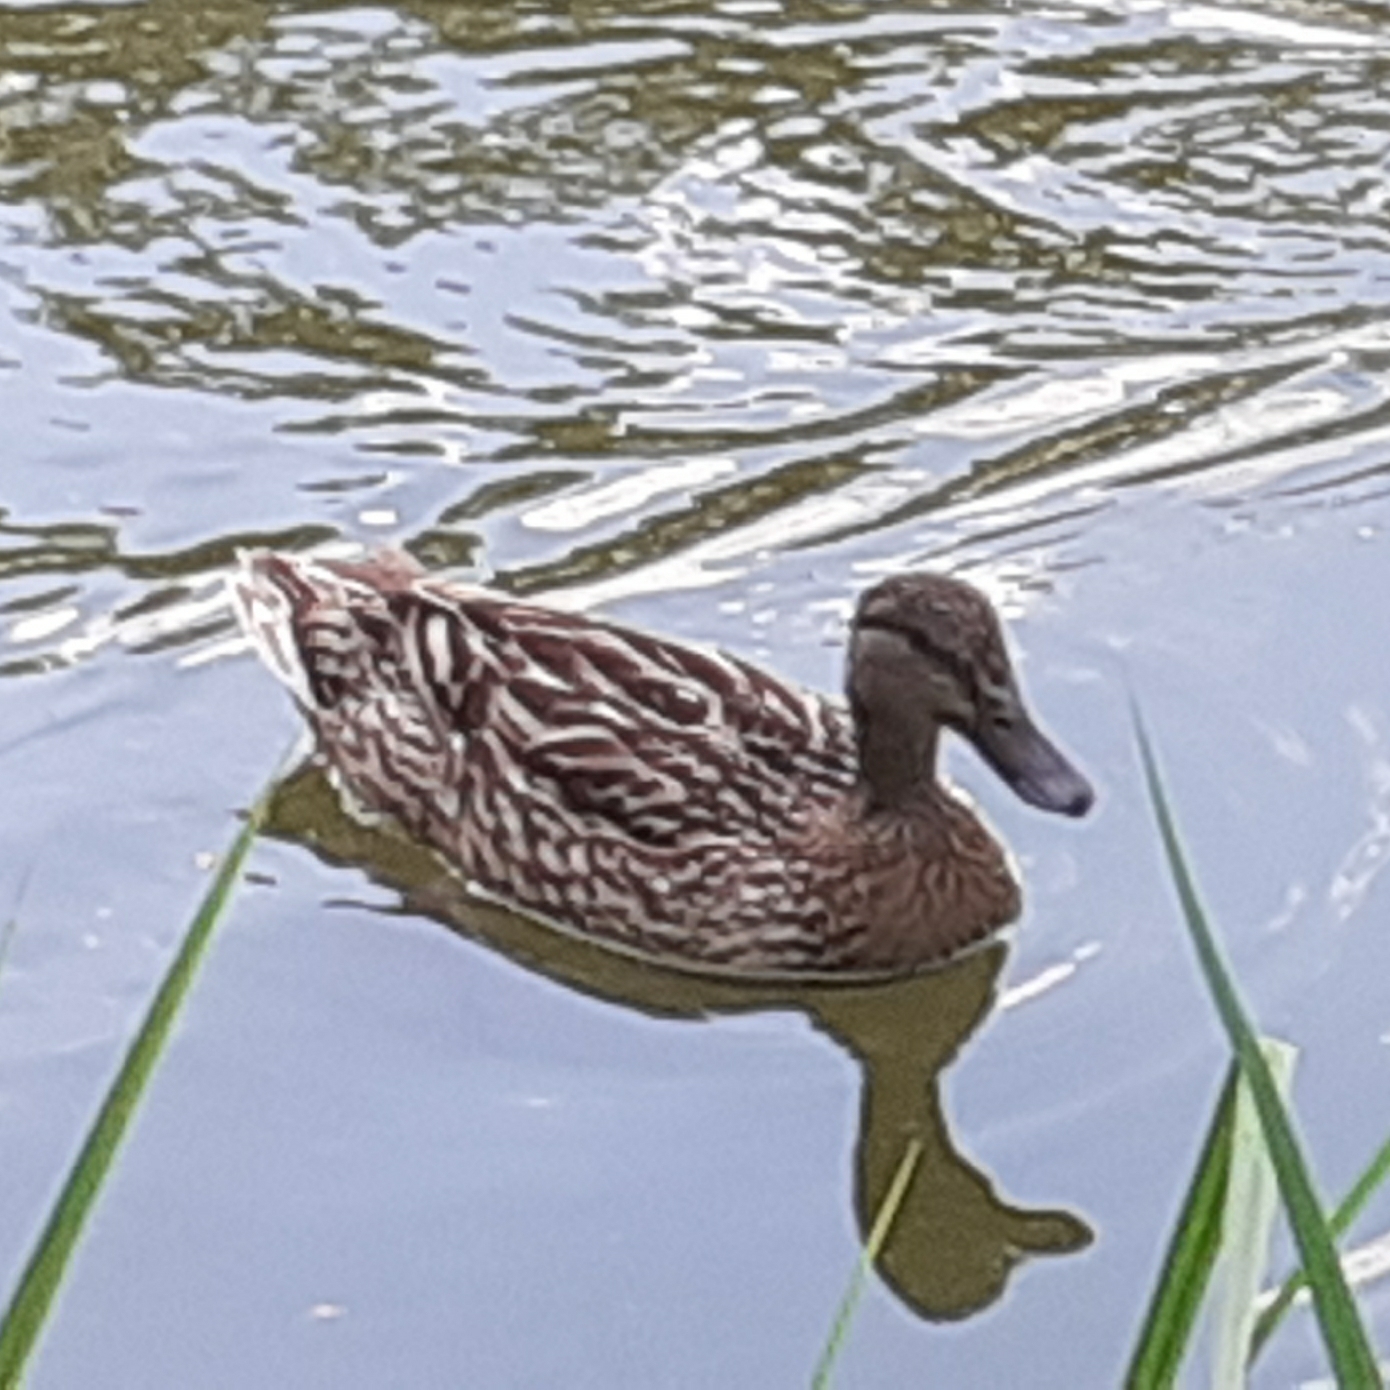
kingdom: Animalia
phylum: Chordata
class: Aves
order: Anseriformes
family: Anatidae
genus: Anas
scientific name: Anas platyrhynchos
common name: Mallard
